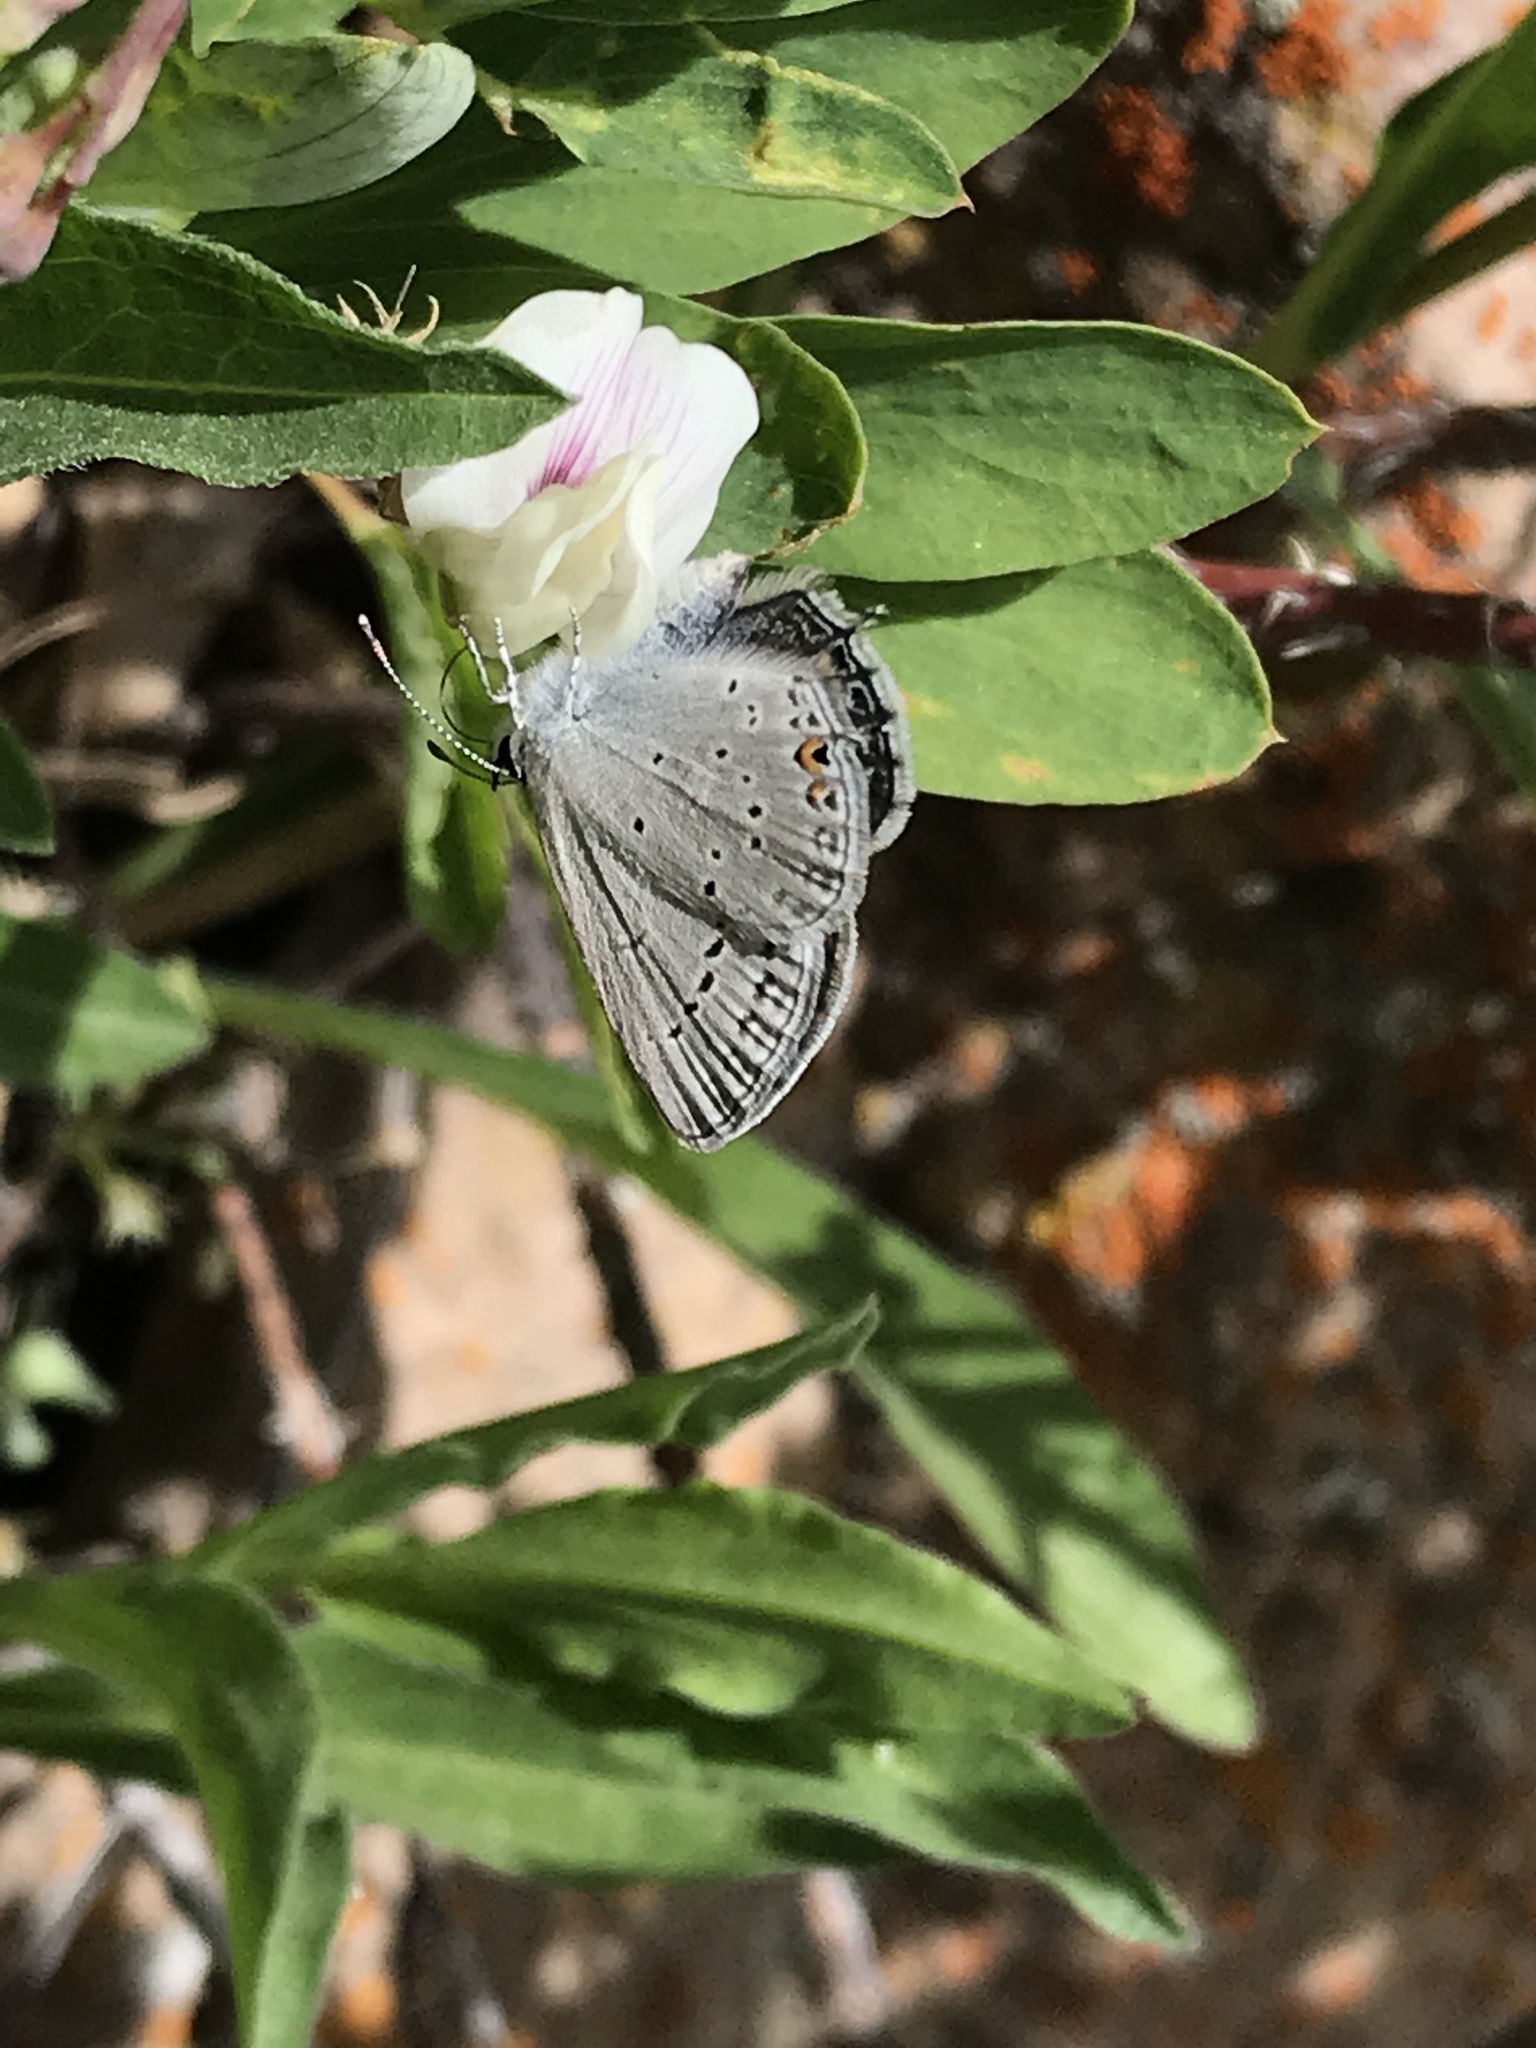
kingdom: Animalia
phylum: Arthropoda
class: Insecta
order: Lepidoptera
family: Lycaenidae
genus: Elkalyce
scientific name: Elkalyce amyntula
